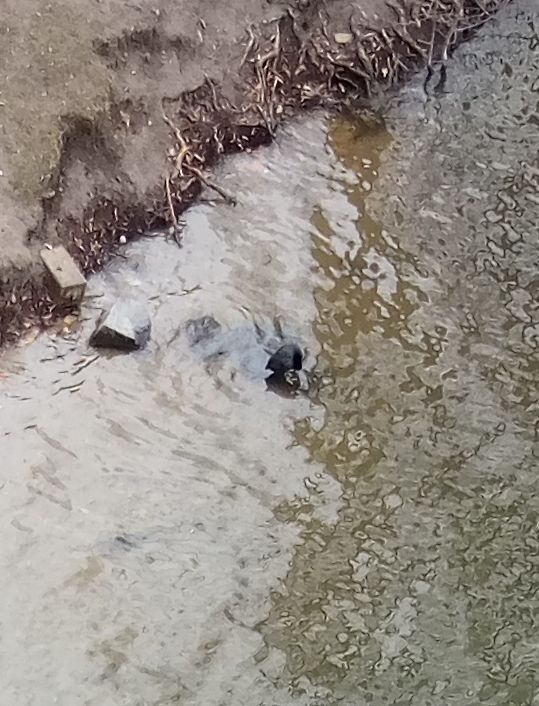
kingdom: Animalia
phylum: Chordata
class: Aves
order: Gruiformes
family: Rallidae
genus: Fulica
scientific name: Fulica atra
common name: Eurasian coot
